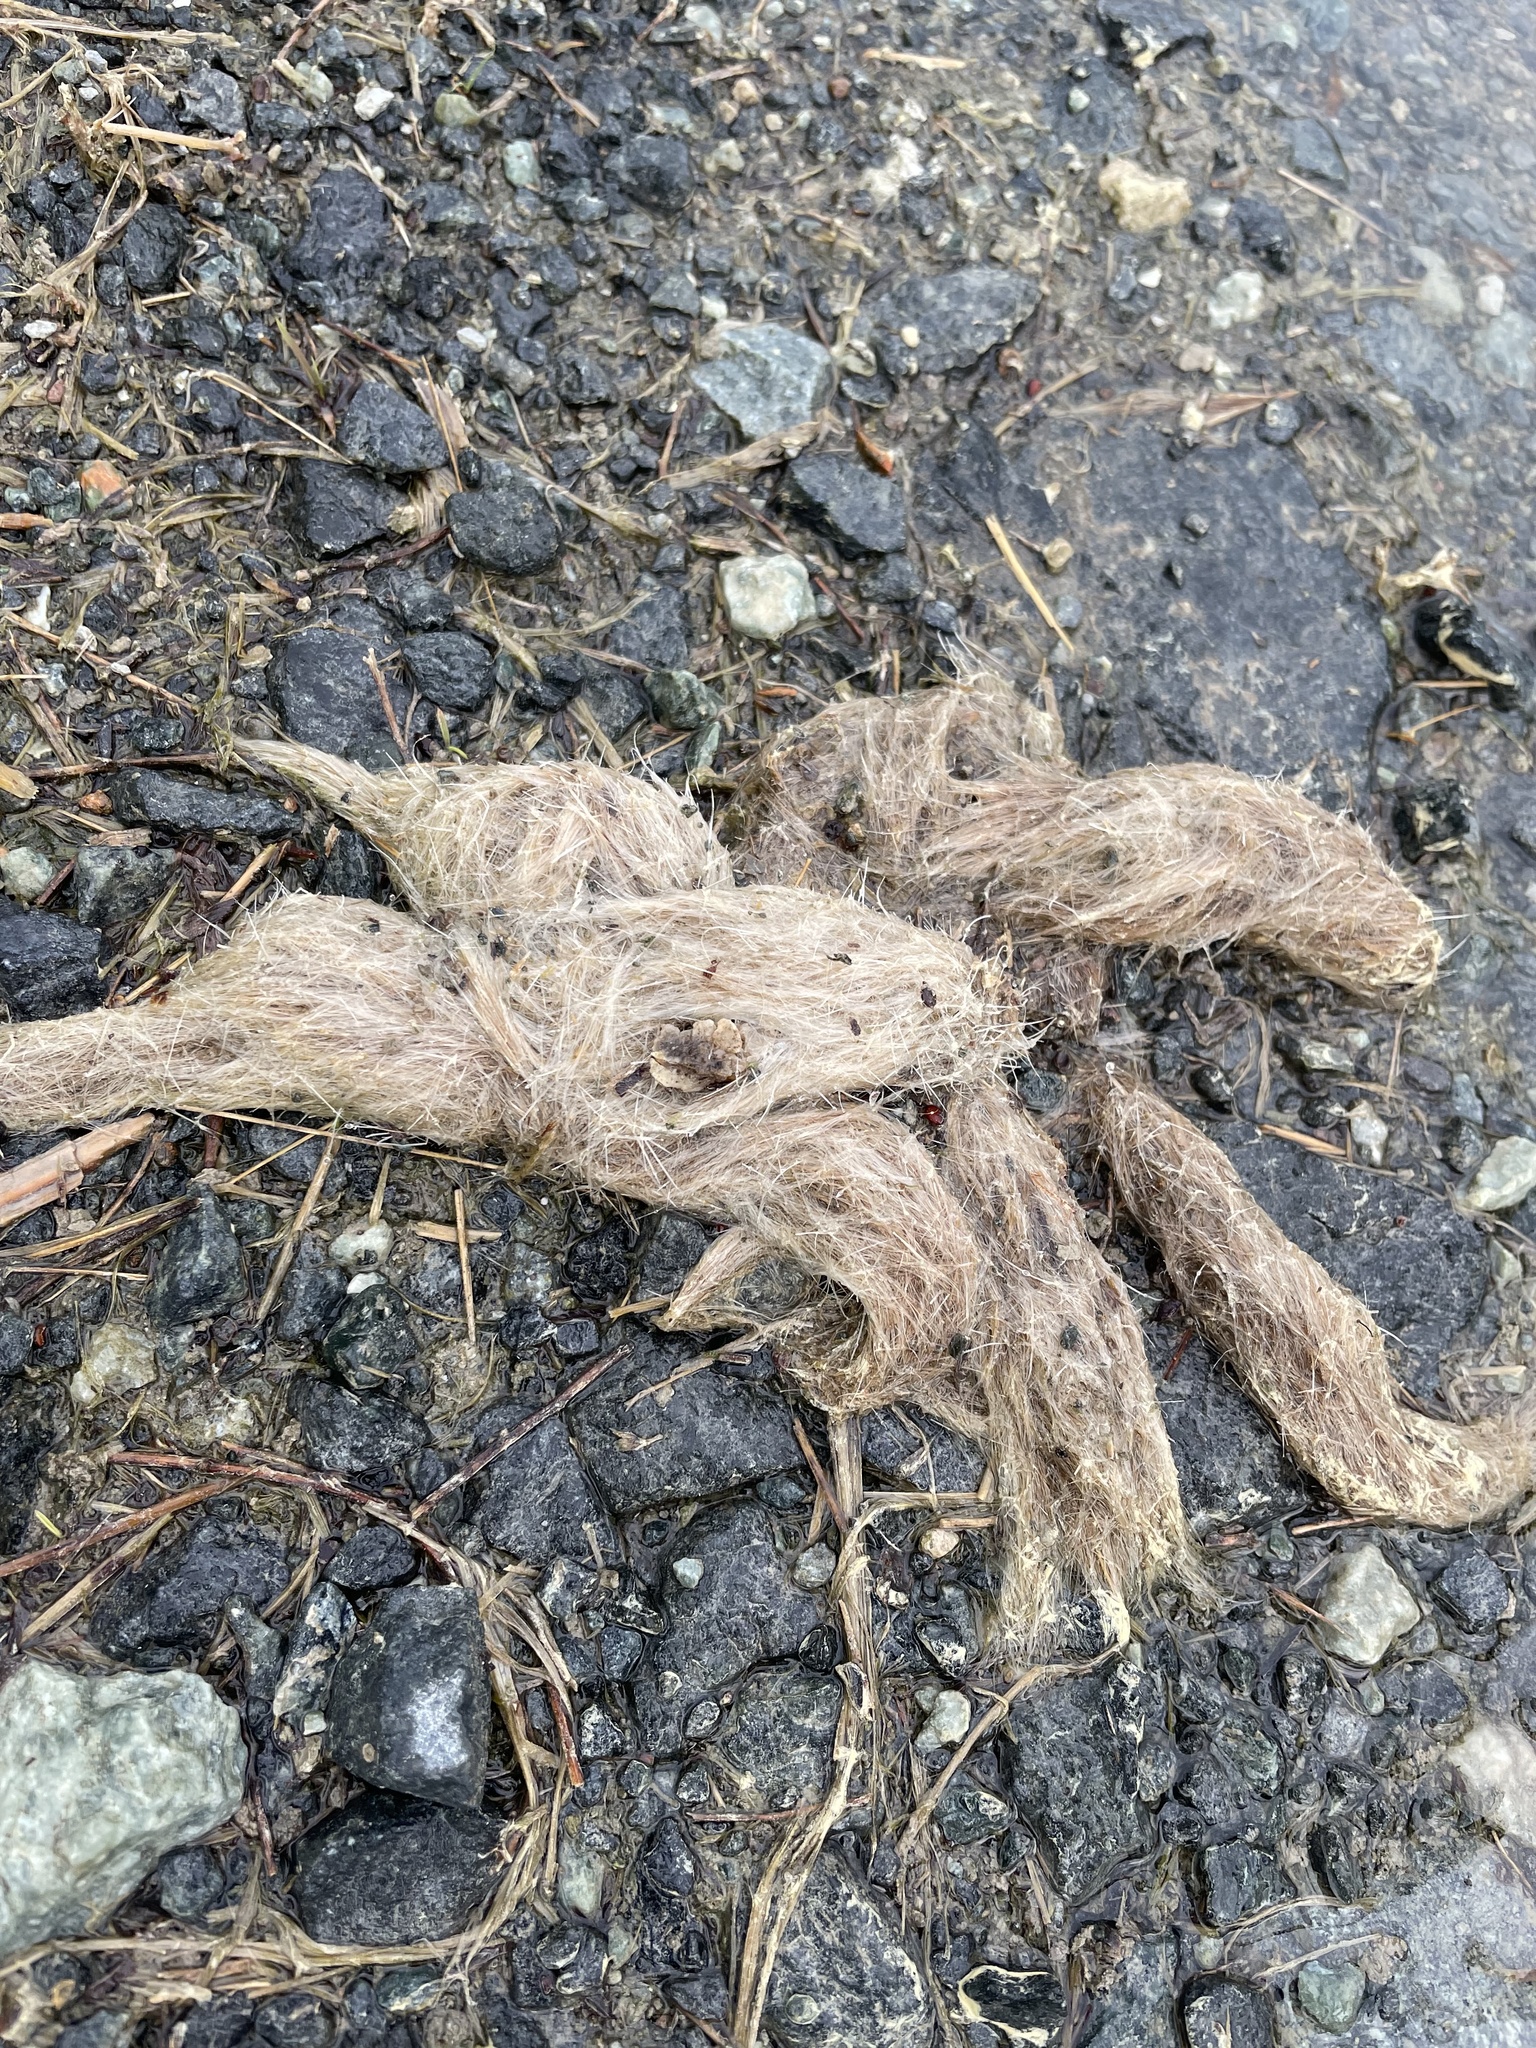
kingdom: Animalia
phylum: Chordata
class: Mammalia
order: Carnivora
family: Canidae
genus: Canis
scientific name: Canis latrans
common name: Coyote
